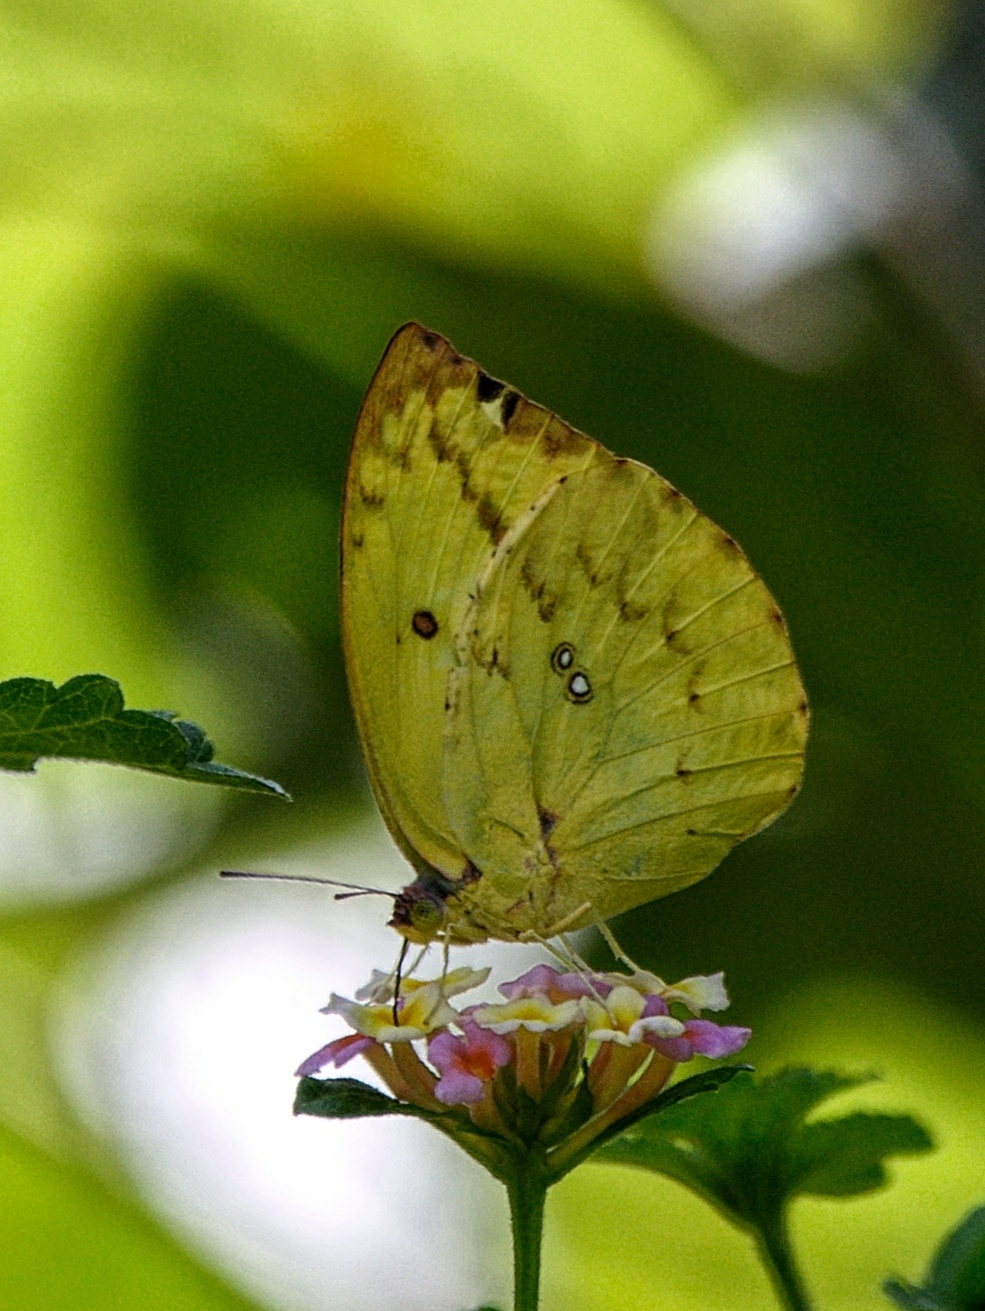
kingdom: Animalia
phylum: Arthropoda
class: Insecta
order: Lepidoptera
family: Pieridae
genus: Catopsilia
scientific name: Catopsilia pomona
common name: Common emigrant
